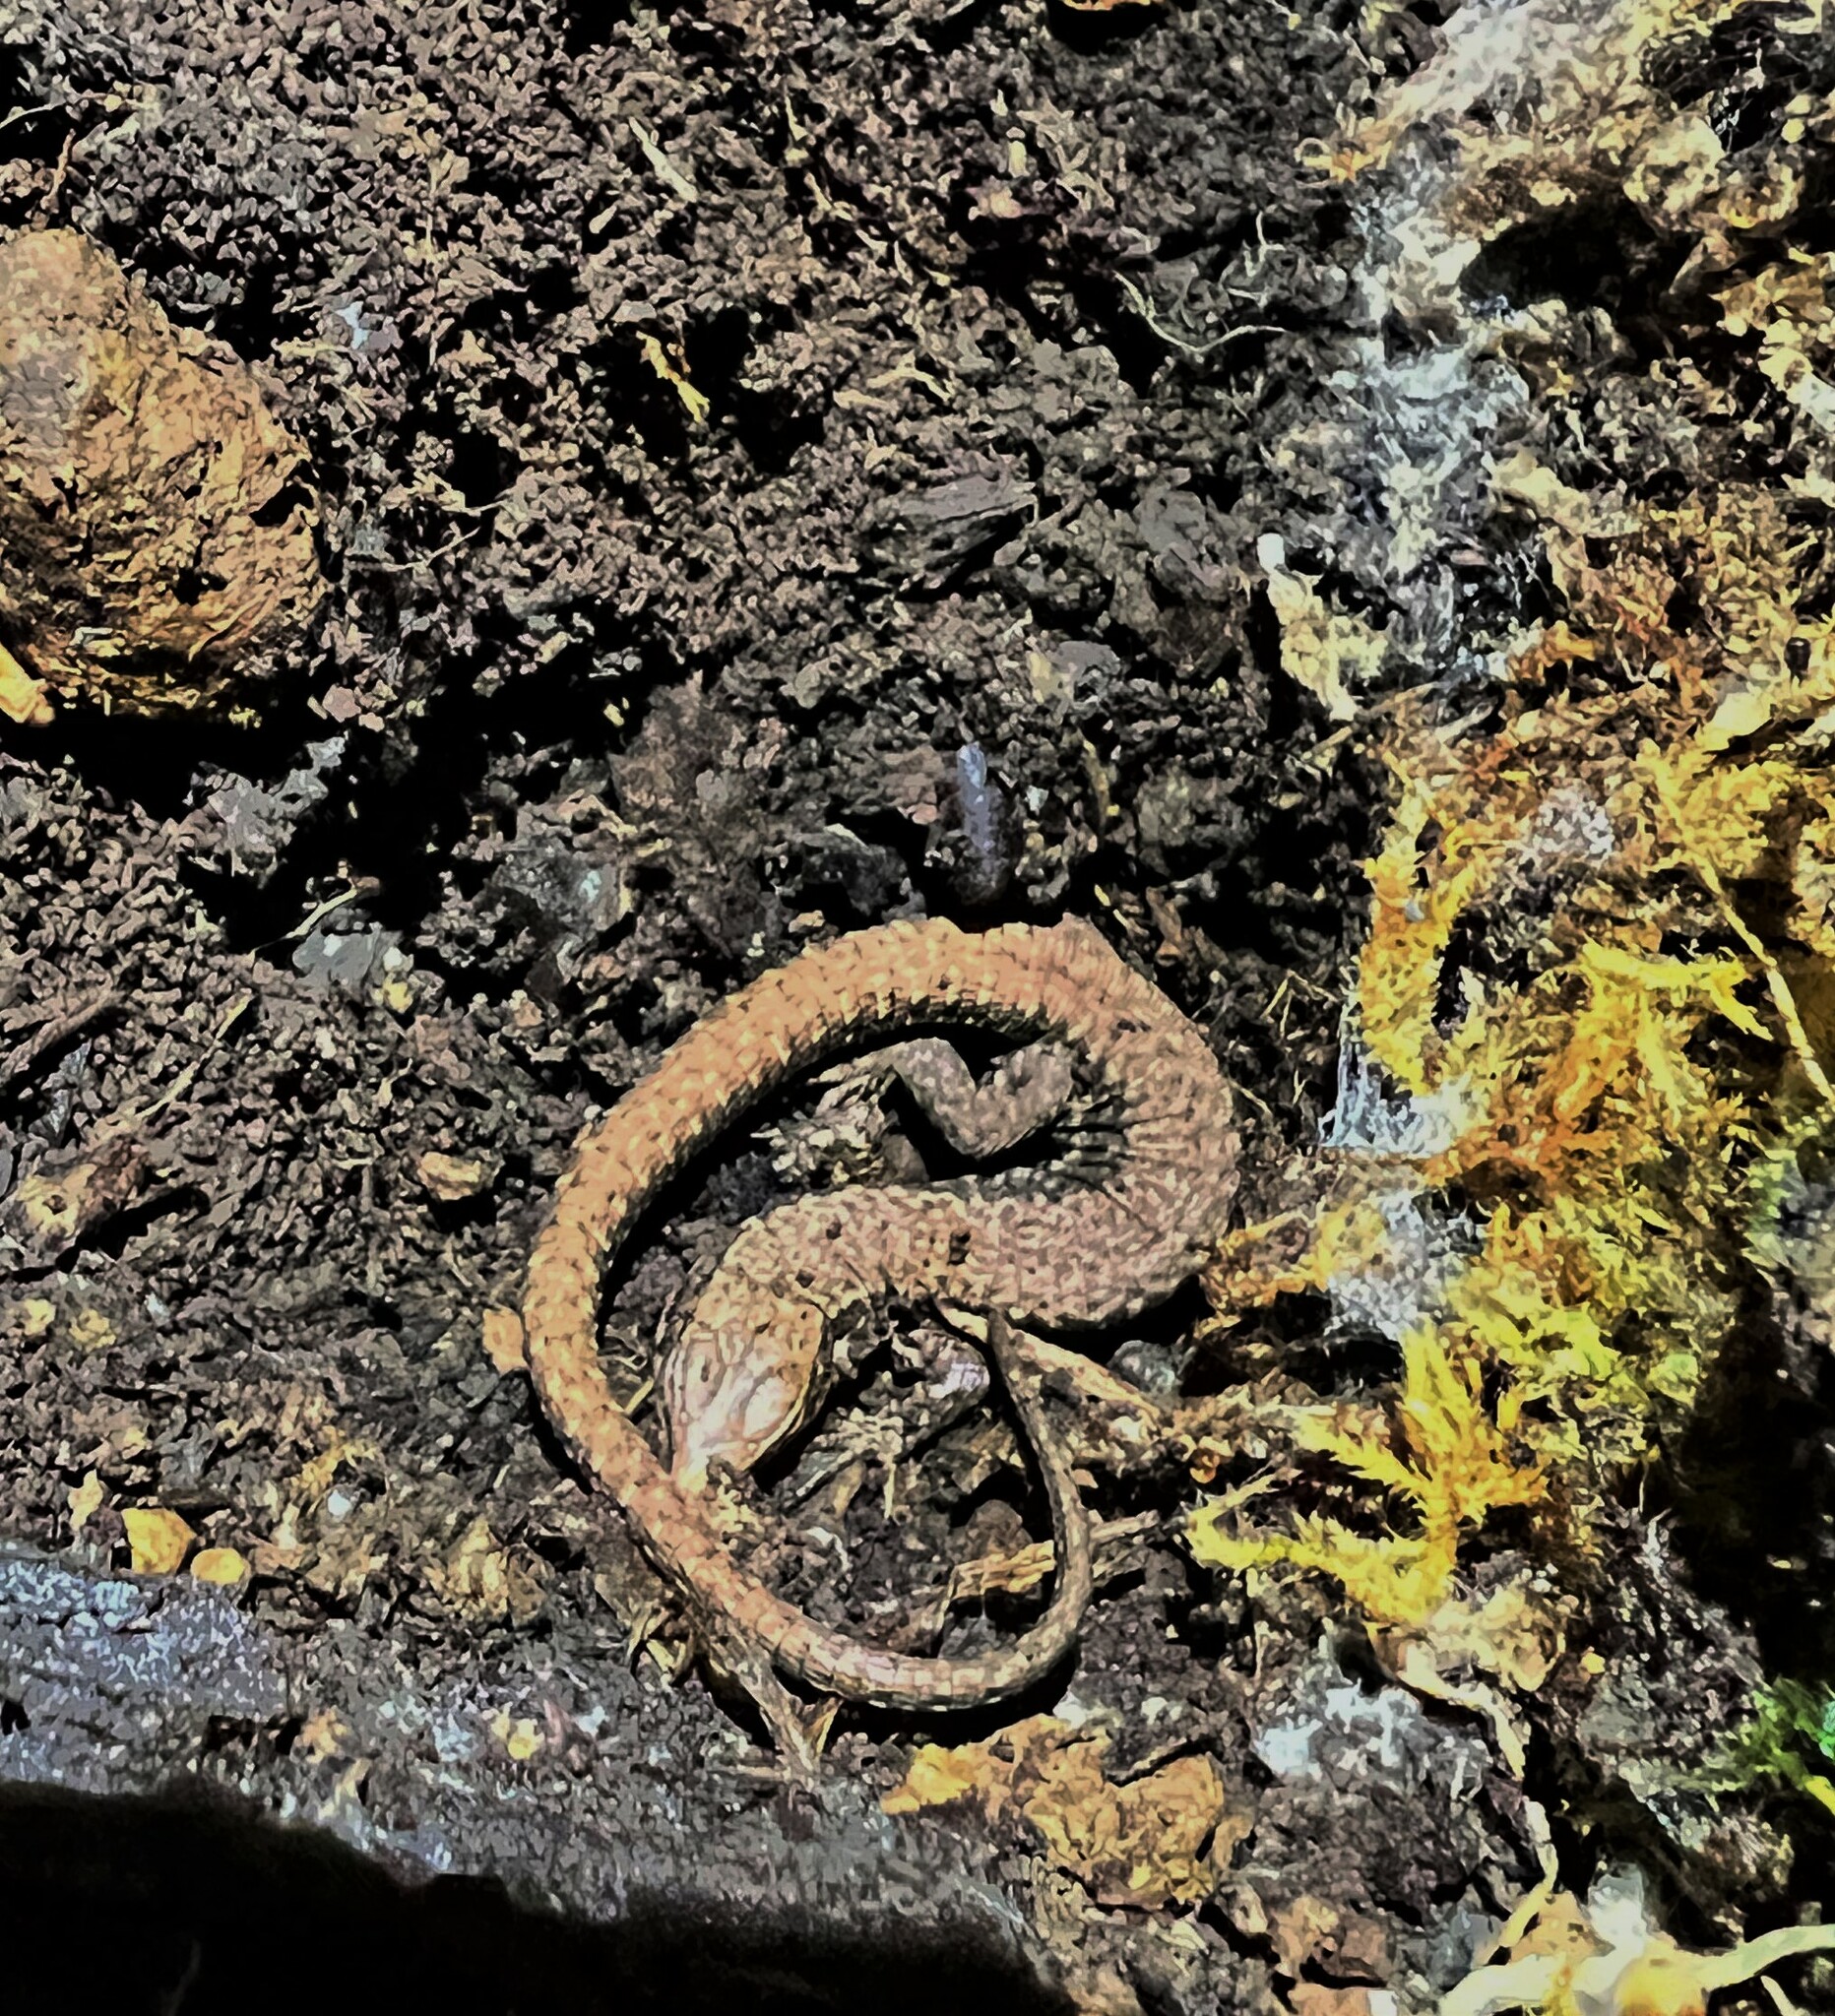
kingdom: Animalia
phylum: Chordata
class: Squamata
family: Lacertidae
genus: Podarcis
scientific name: Podarcis muralis
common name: Common wall lizard
